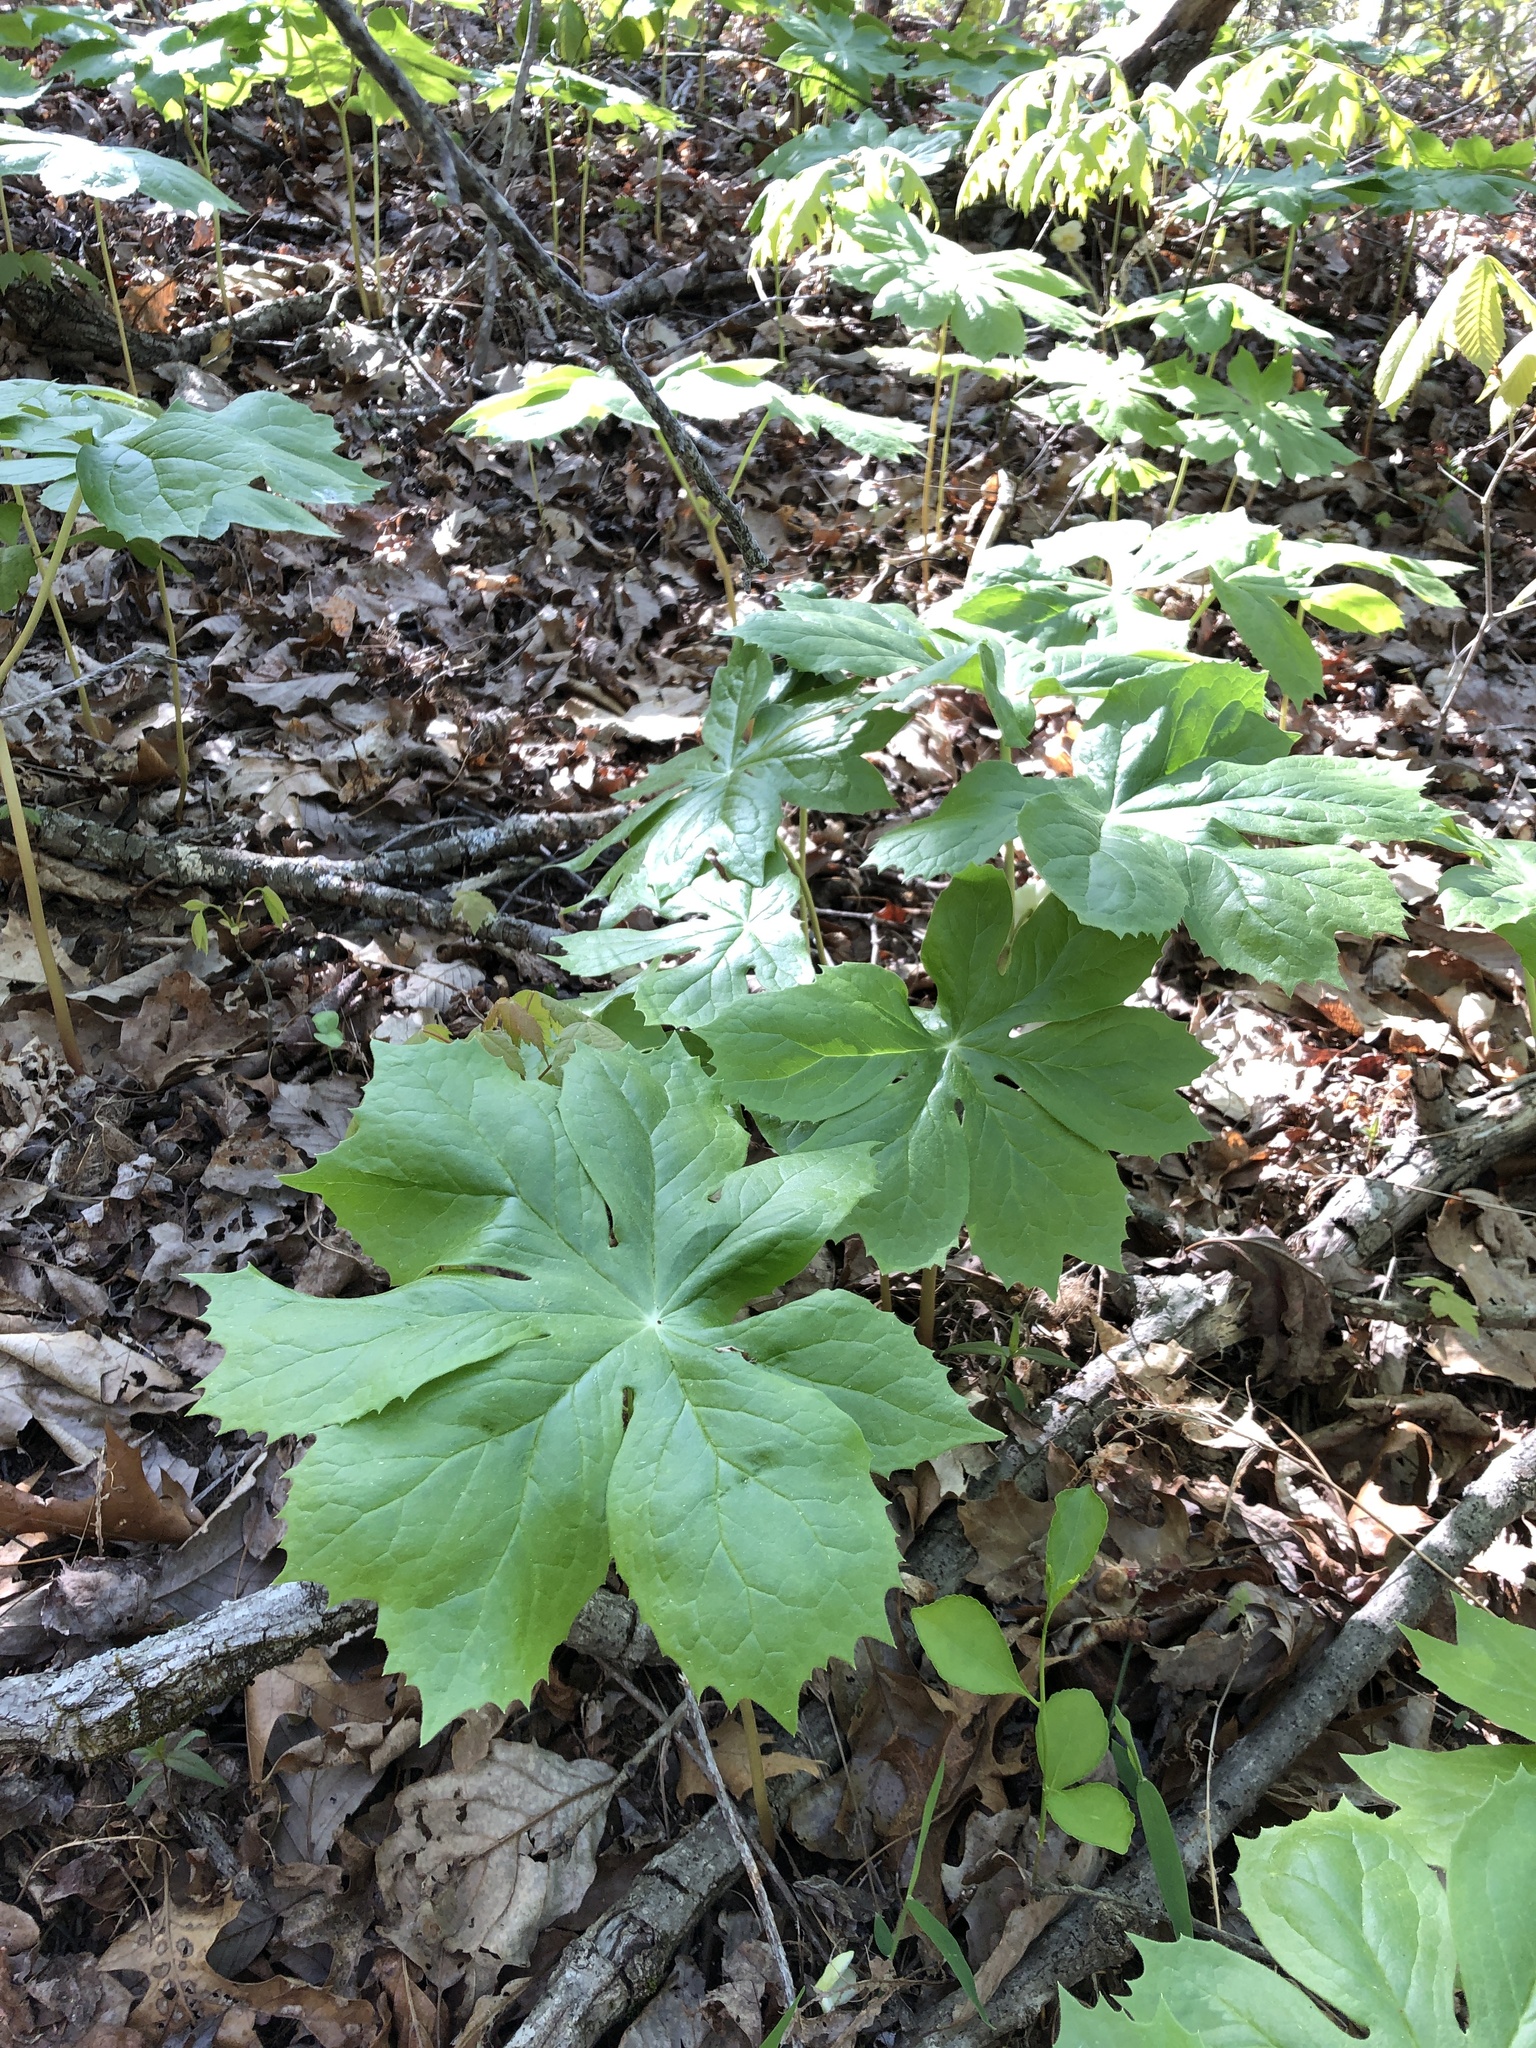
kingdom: Plantae
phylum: Tracheophyta
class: Magnoliopsida
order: Ranunculales
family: Berberidaceae
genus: Podophyllum
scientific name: Podophyllum peltatum
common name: Wild mandrake
